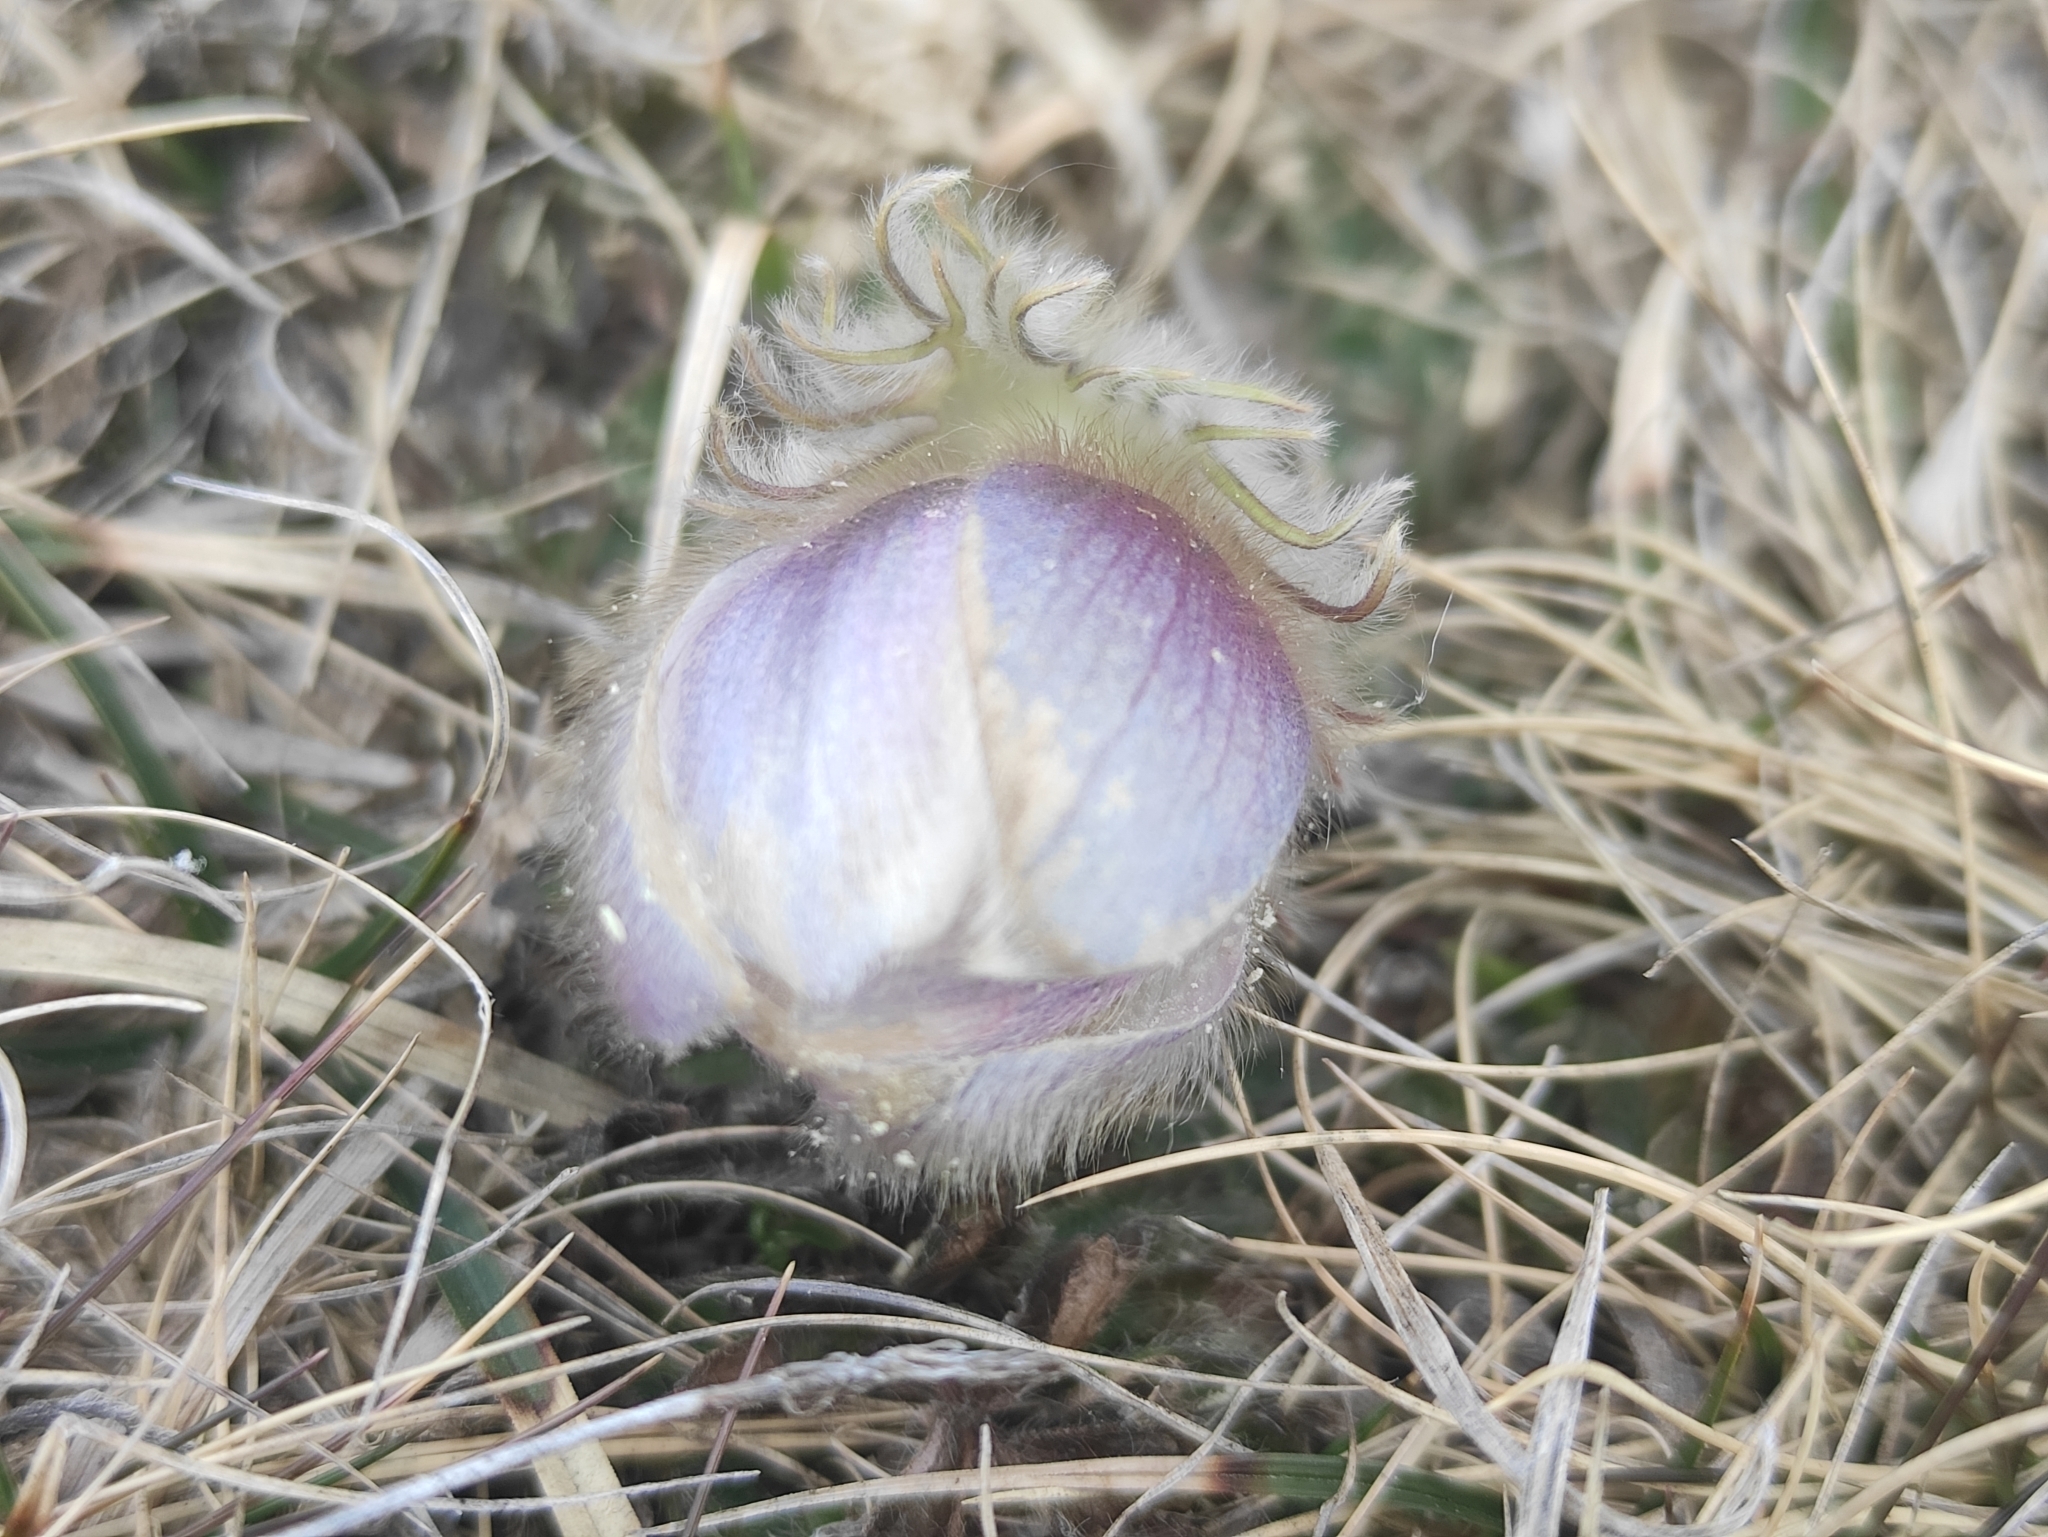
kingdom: Plantae
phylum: Tracheophyta
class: Magnoliopsida
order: Ranunculales
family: Ranunculaceae
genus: Pulsatilla
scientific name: Pulsatilla vernalis
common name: Spring pasque flower
